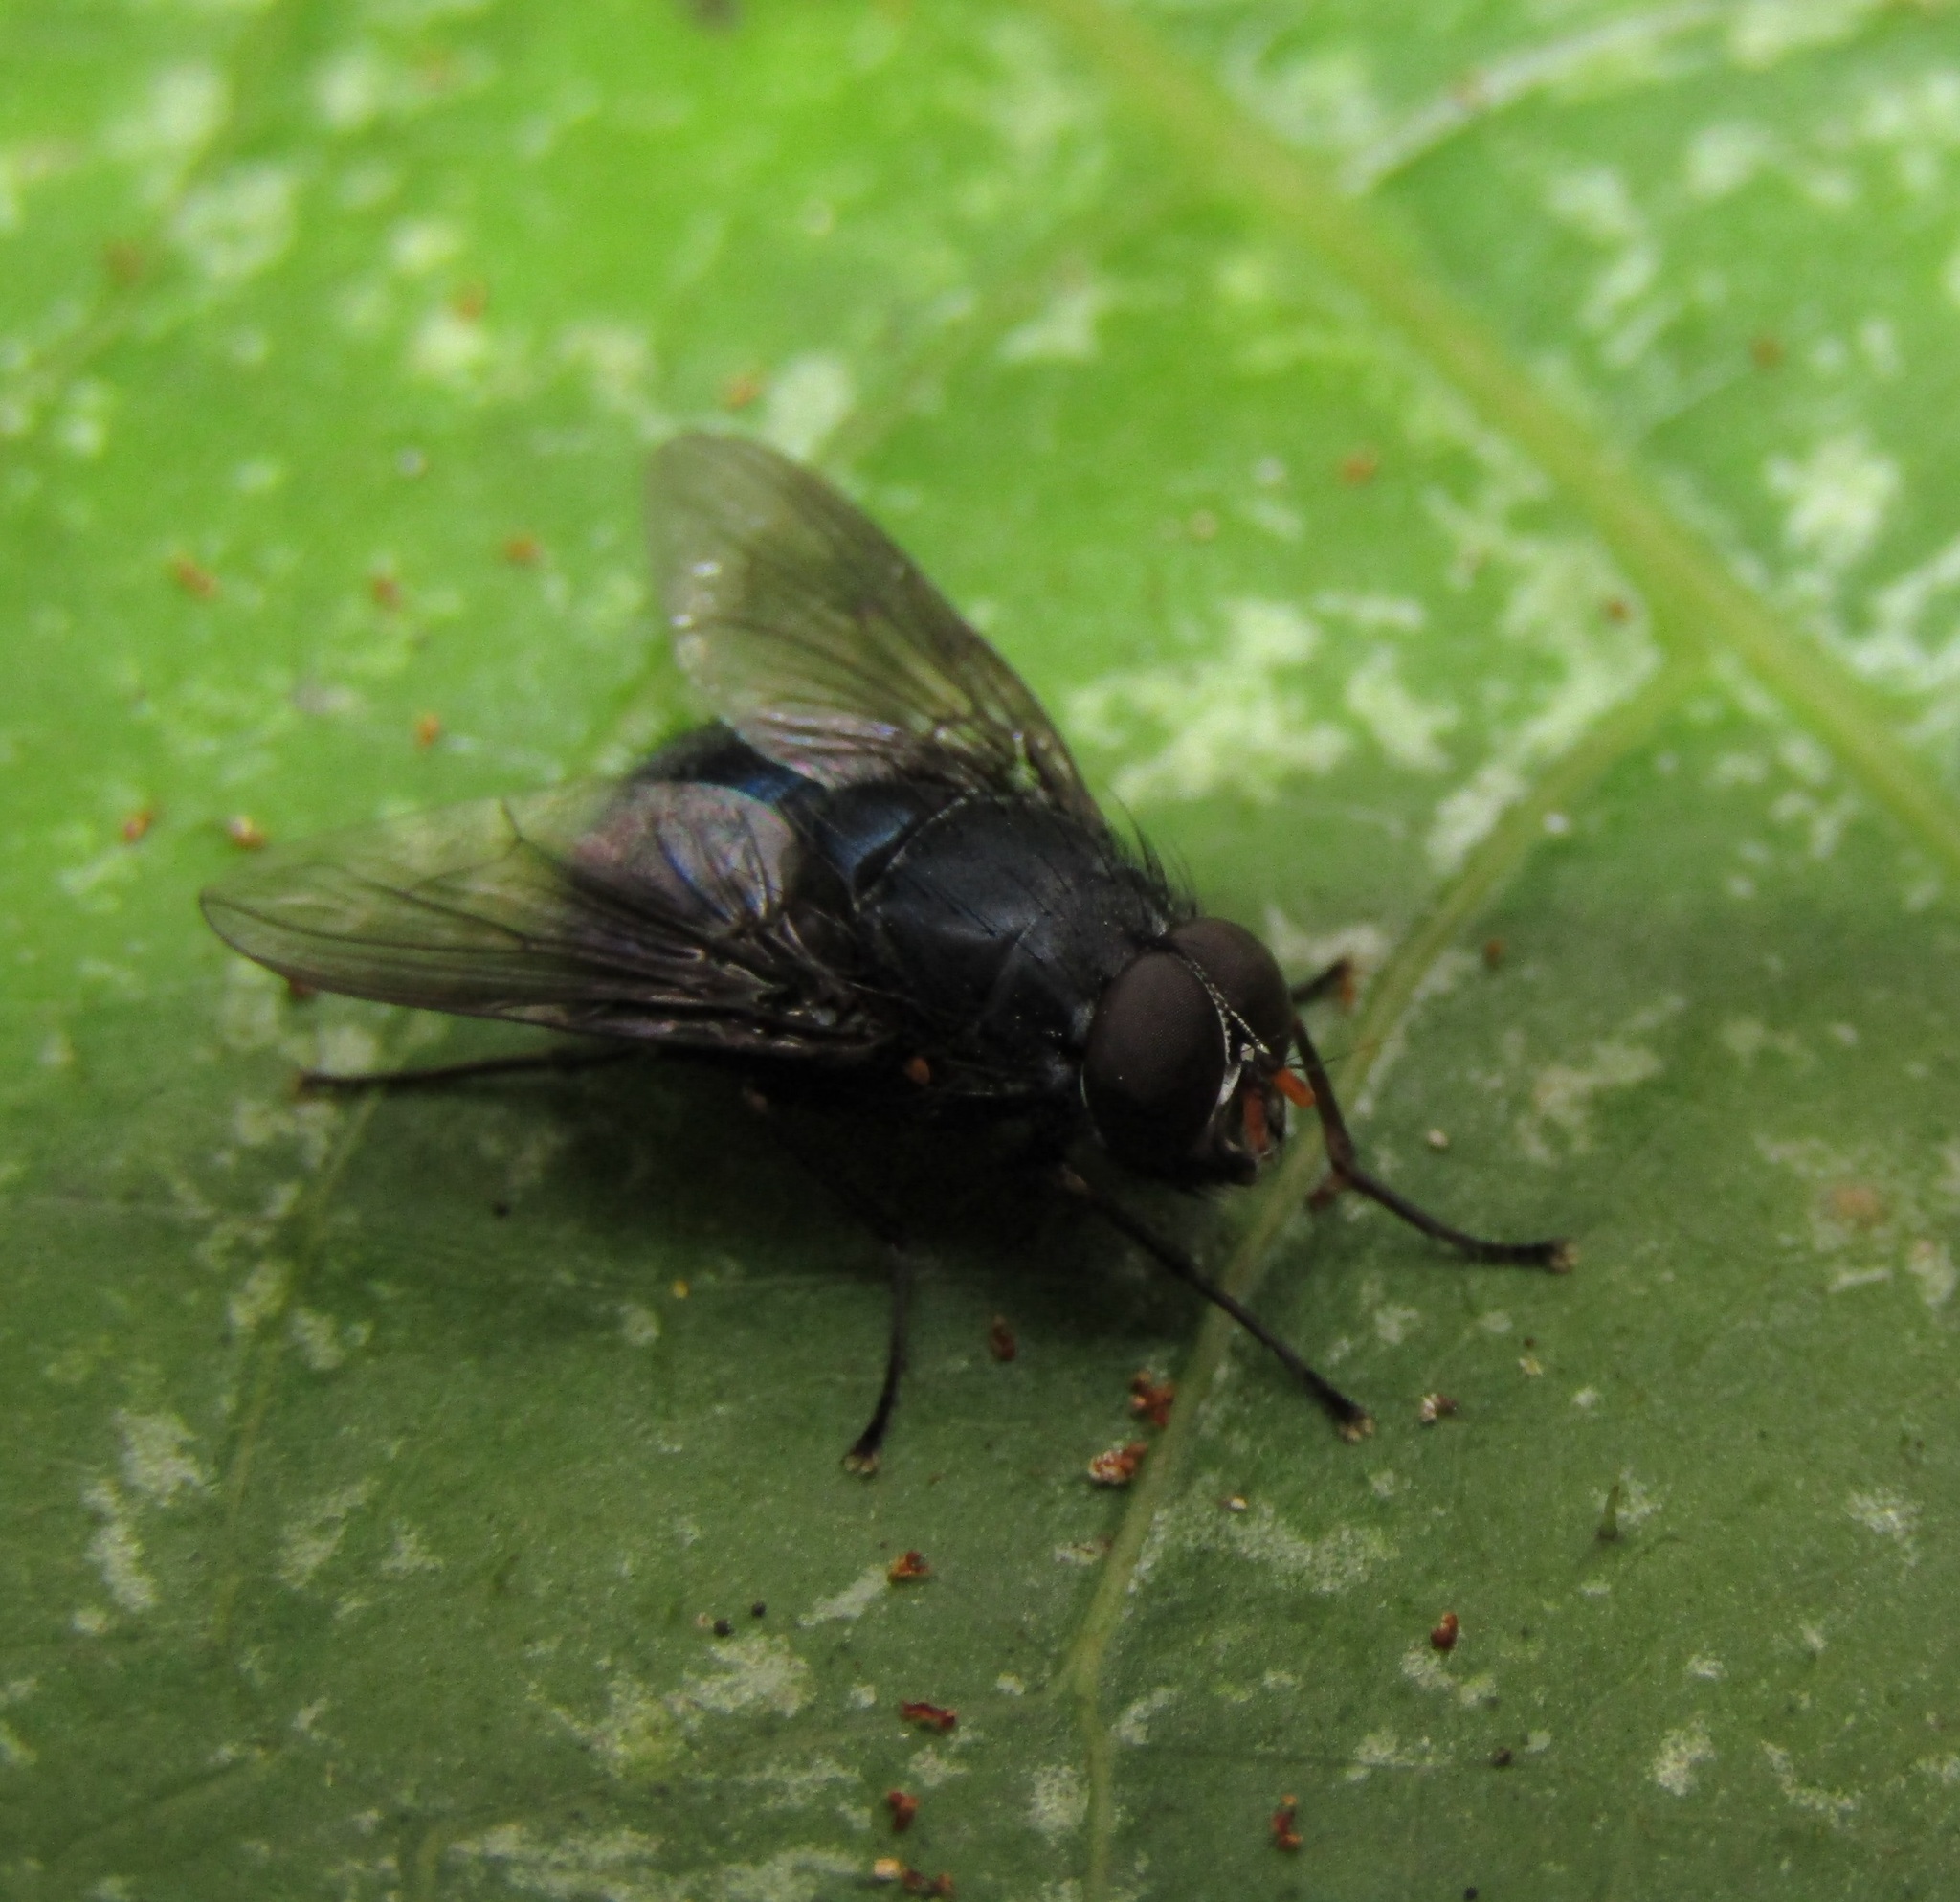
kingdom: Animalia
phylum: Arthropoda
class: Insecta
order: Diptera
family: Muscidae
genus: Calliphoroides
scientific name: Calliphoroides antennatis
